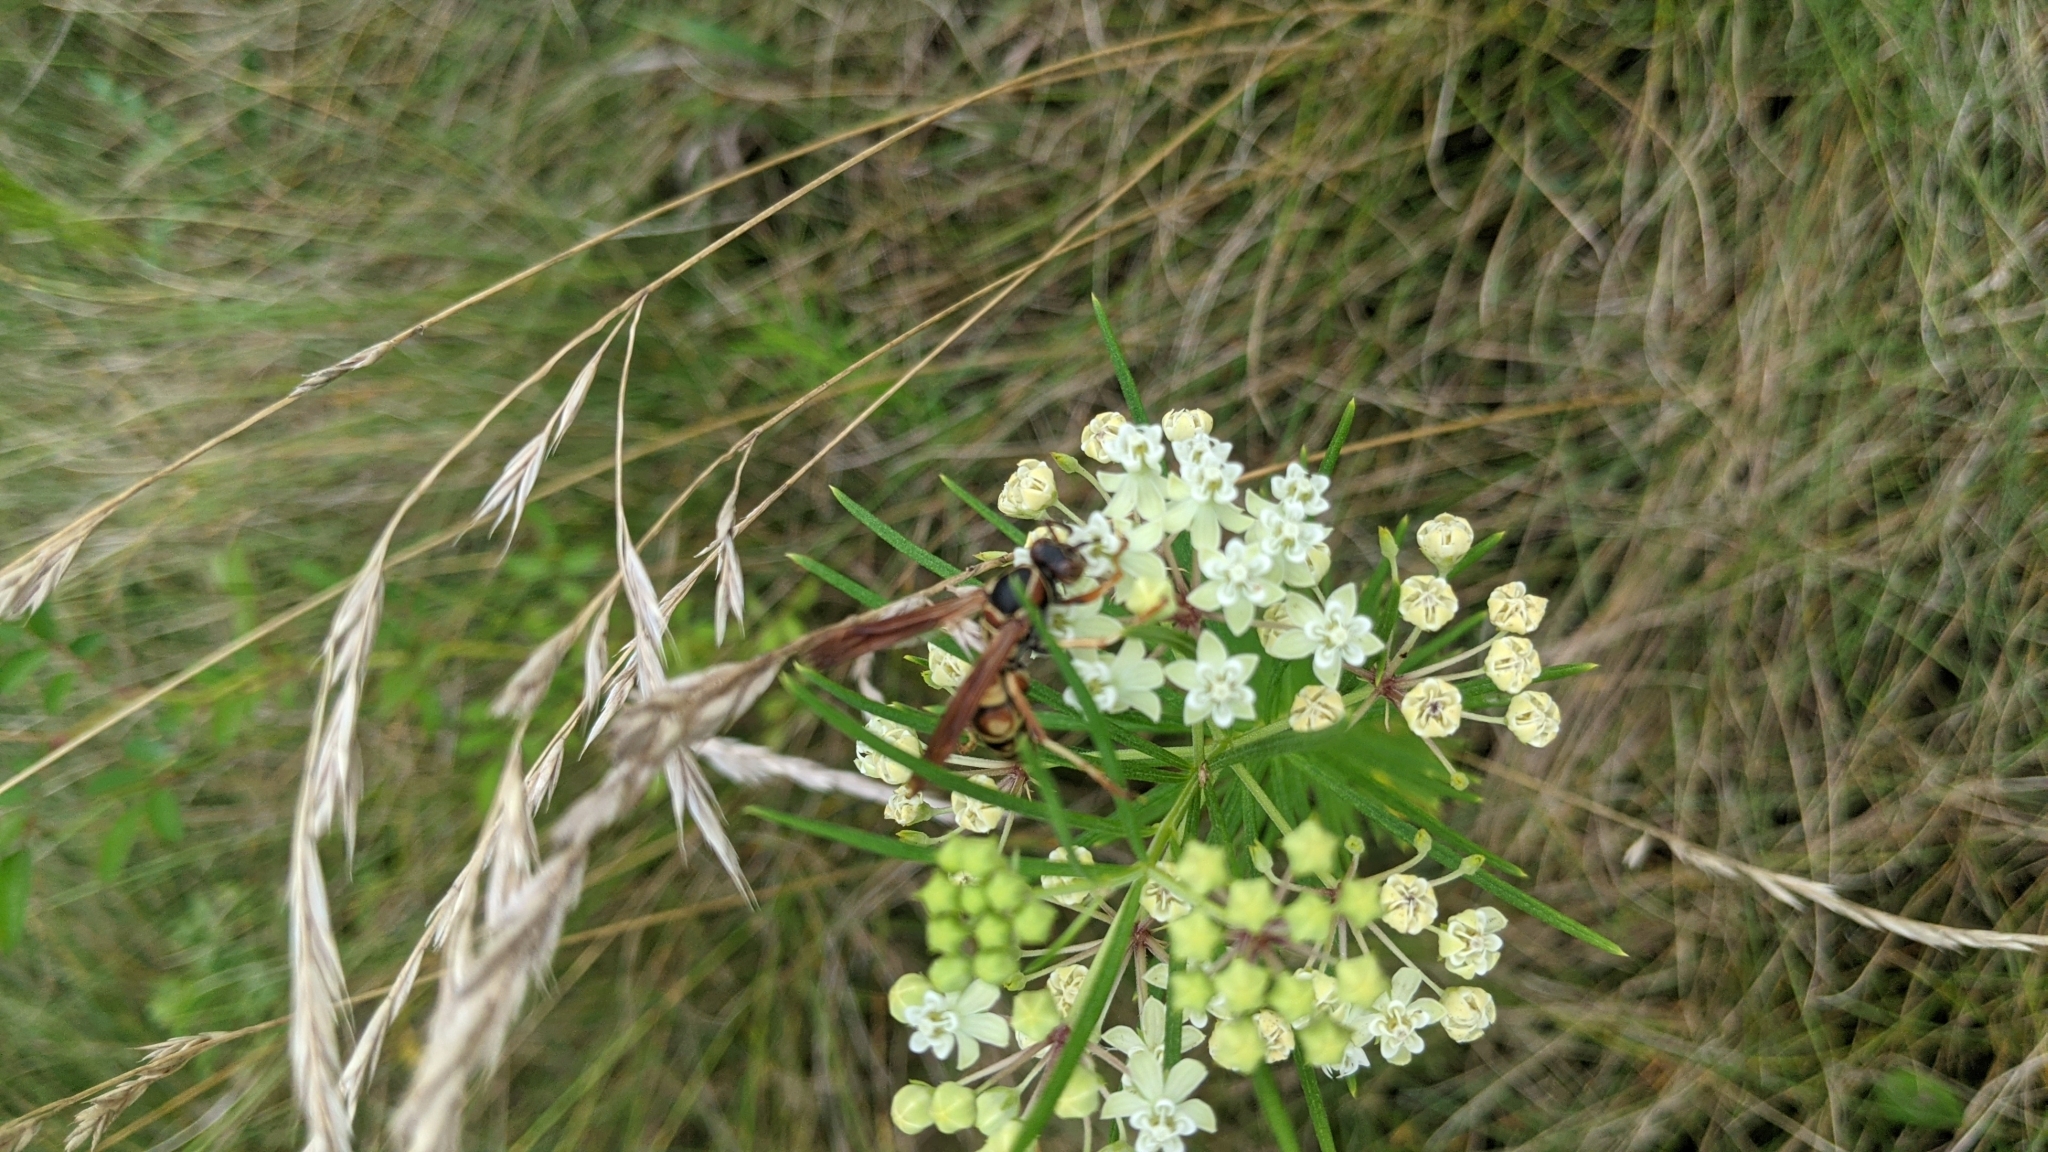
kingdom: Animalia
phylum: Arthropoda
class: Insecta
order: Hymenoptera
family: Eumenidae
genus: Polistes
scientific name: Polistes fuscatus
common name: Dark paper wasp
